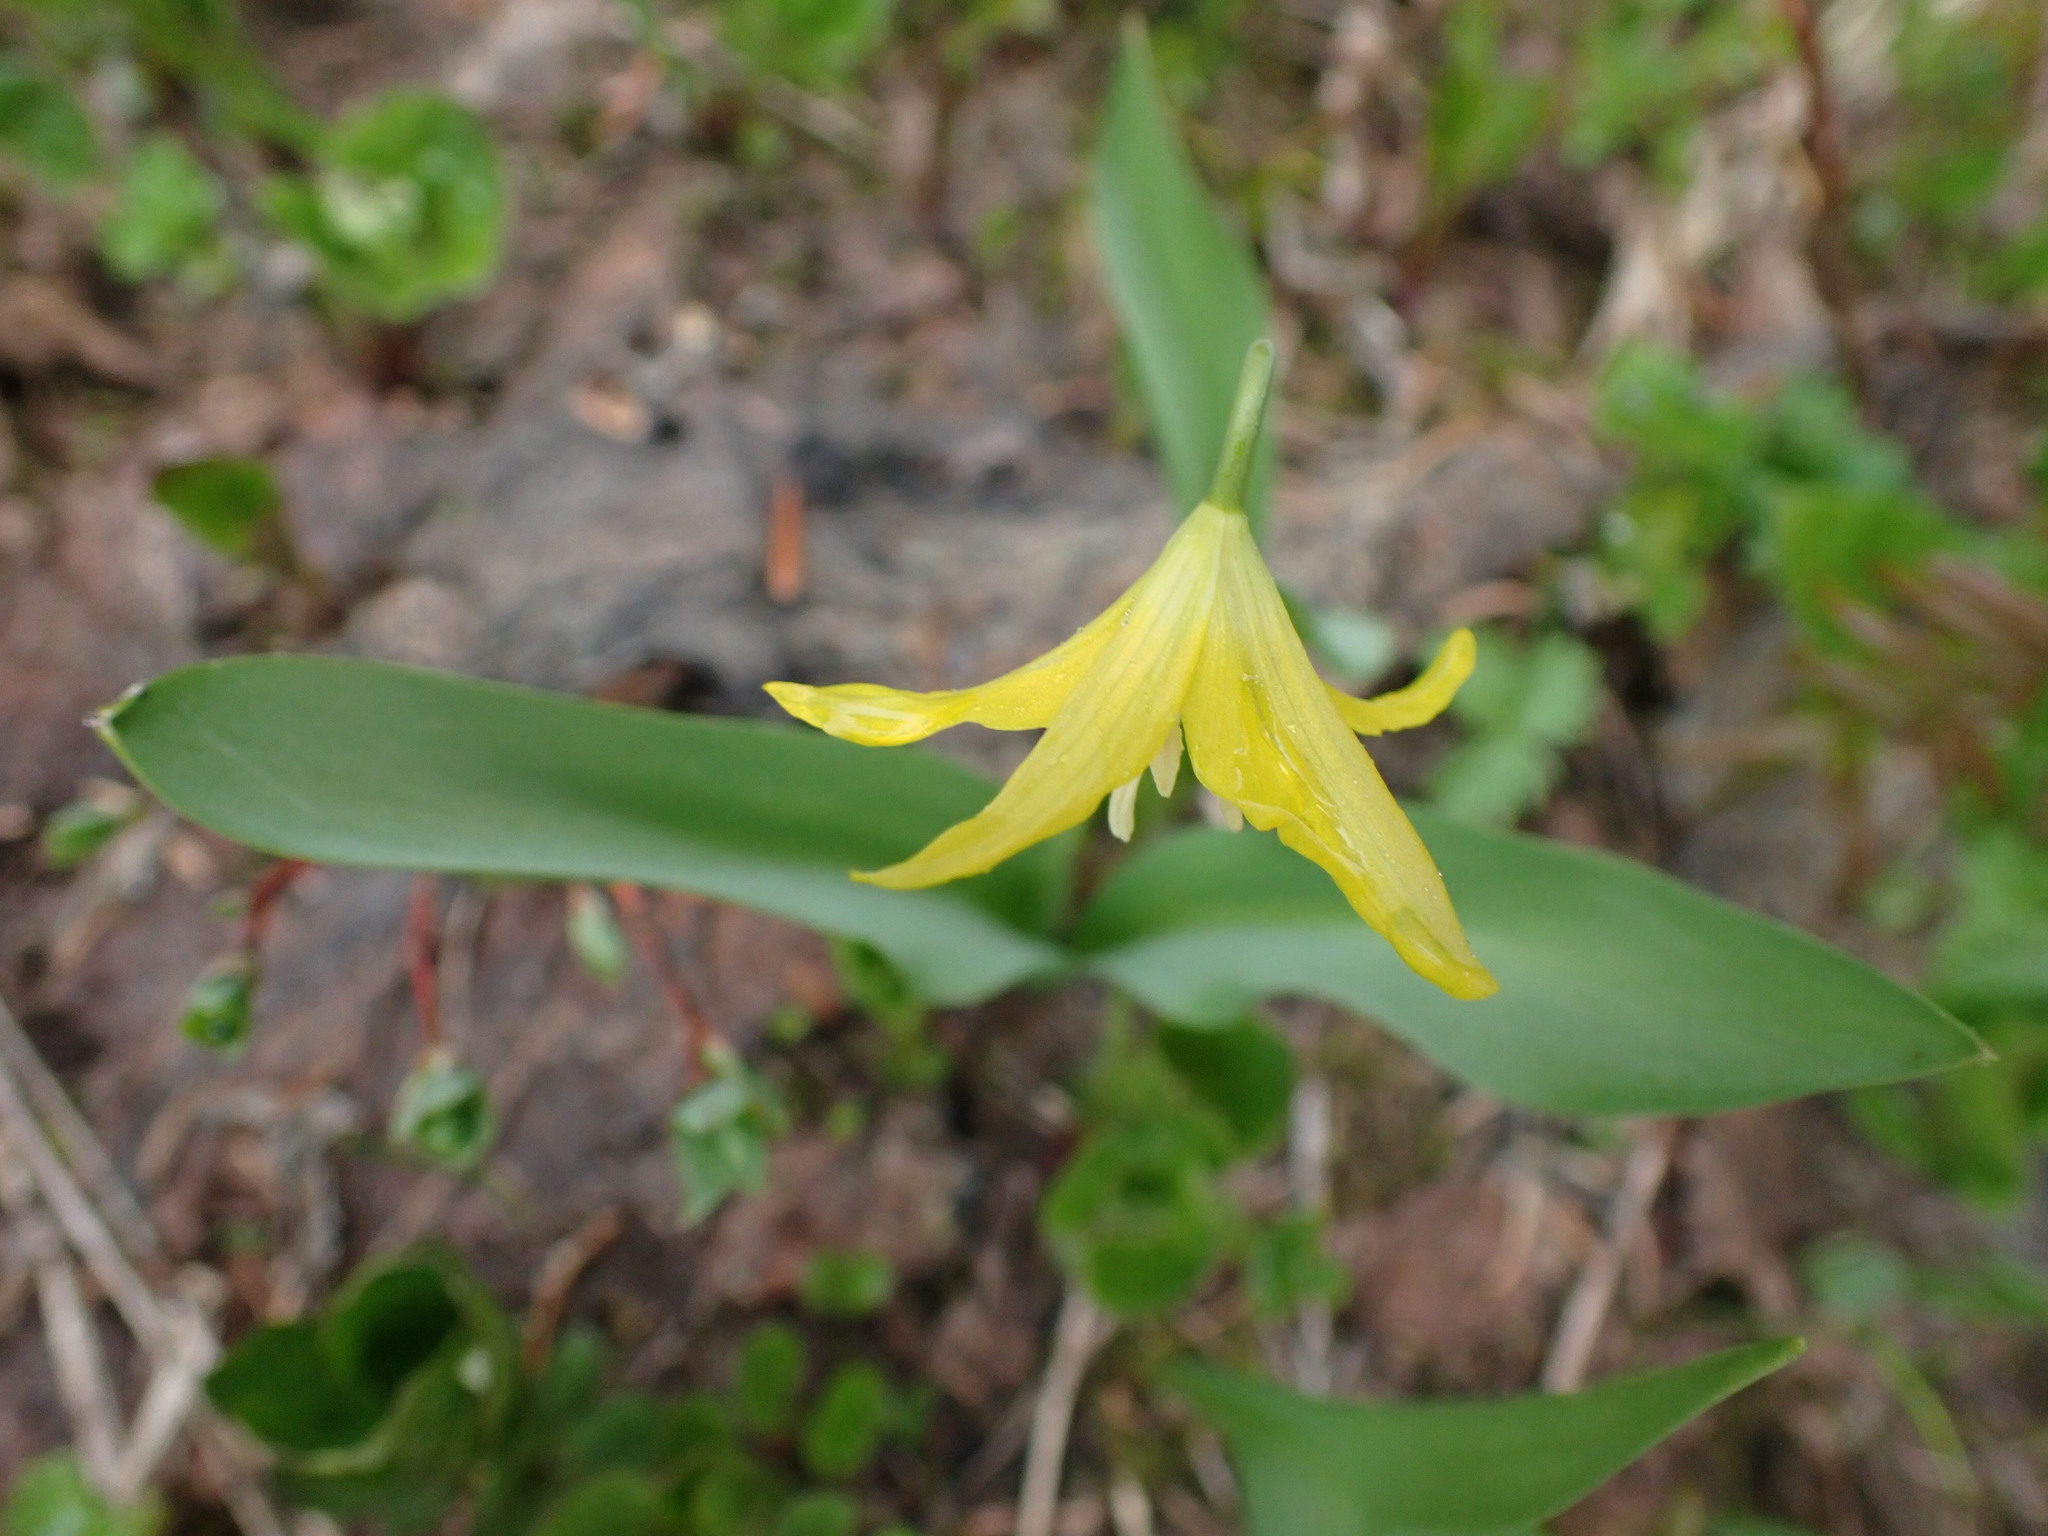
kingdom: Plantae
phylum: Tracheophyta
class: Liliopsida
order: Liliales
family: Liliaceae
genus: Erythronium
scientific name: Erythronium grandiflorum
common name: Avalanche-lily
